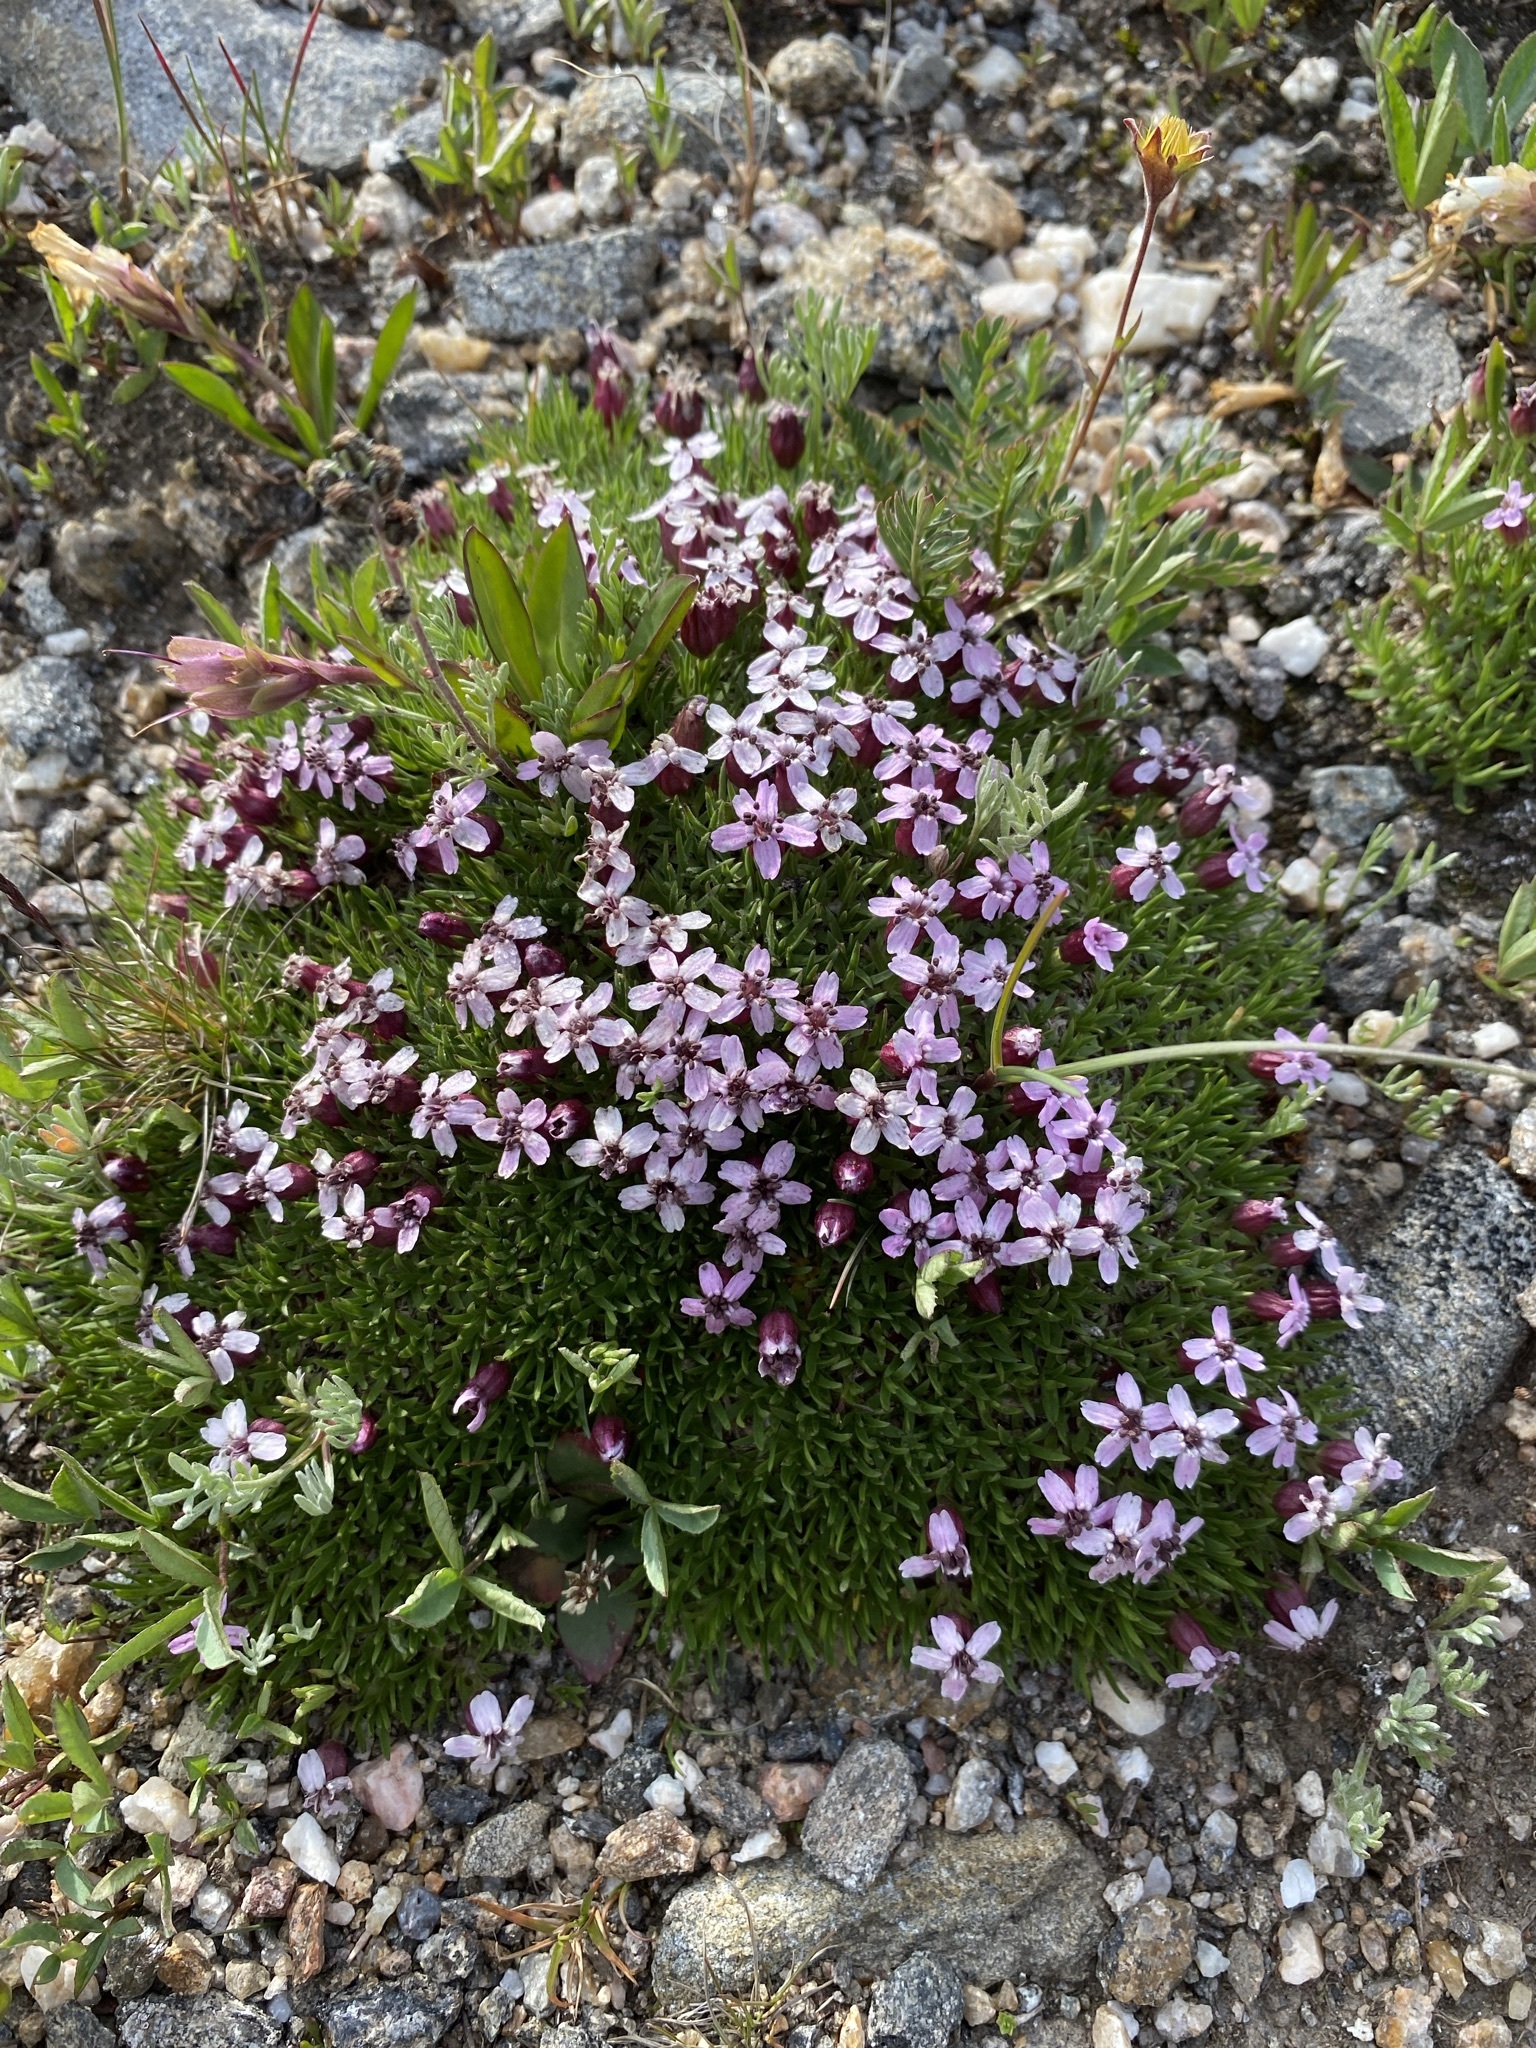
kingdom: Plantae
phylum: Tracheophyta
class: Magnoliopsida
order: Caryophyllales
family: Caryophyllaceae
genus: Silene
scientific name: Silene acaulis
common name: Moss campion
